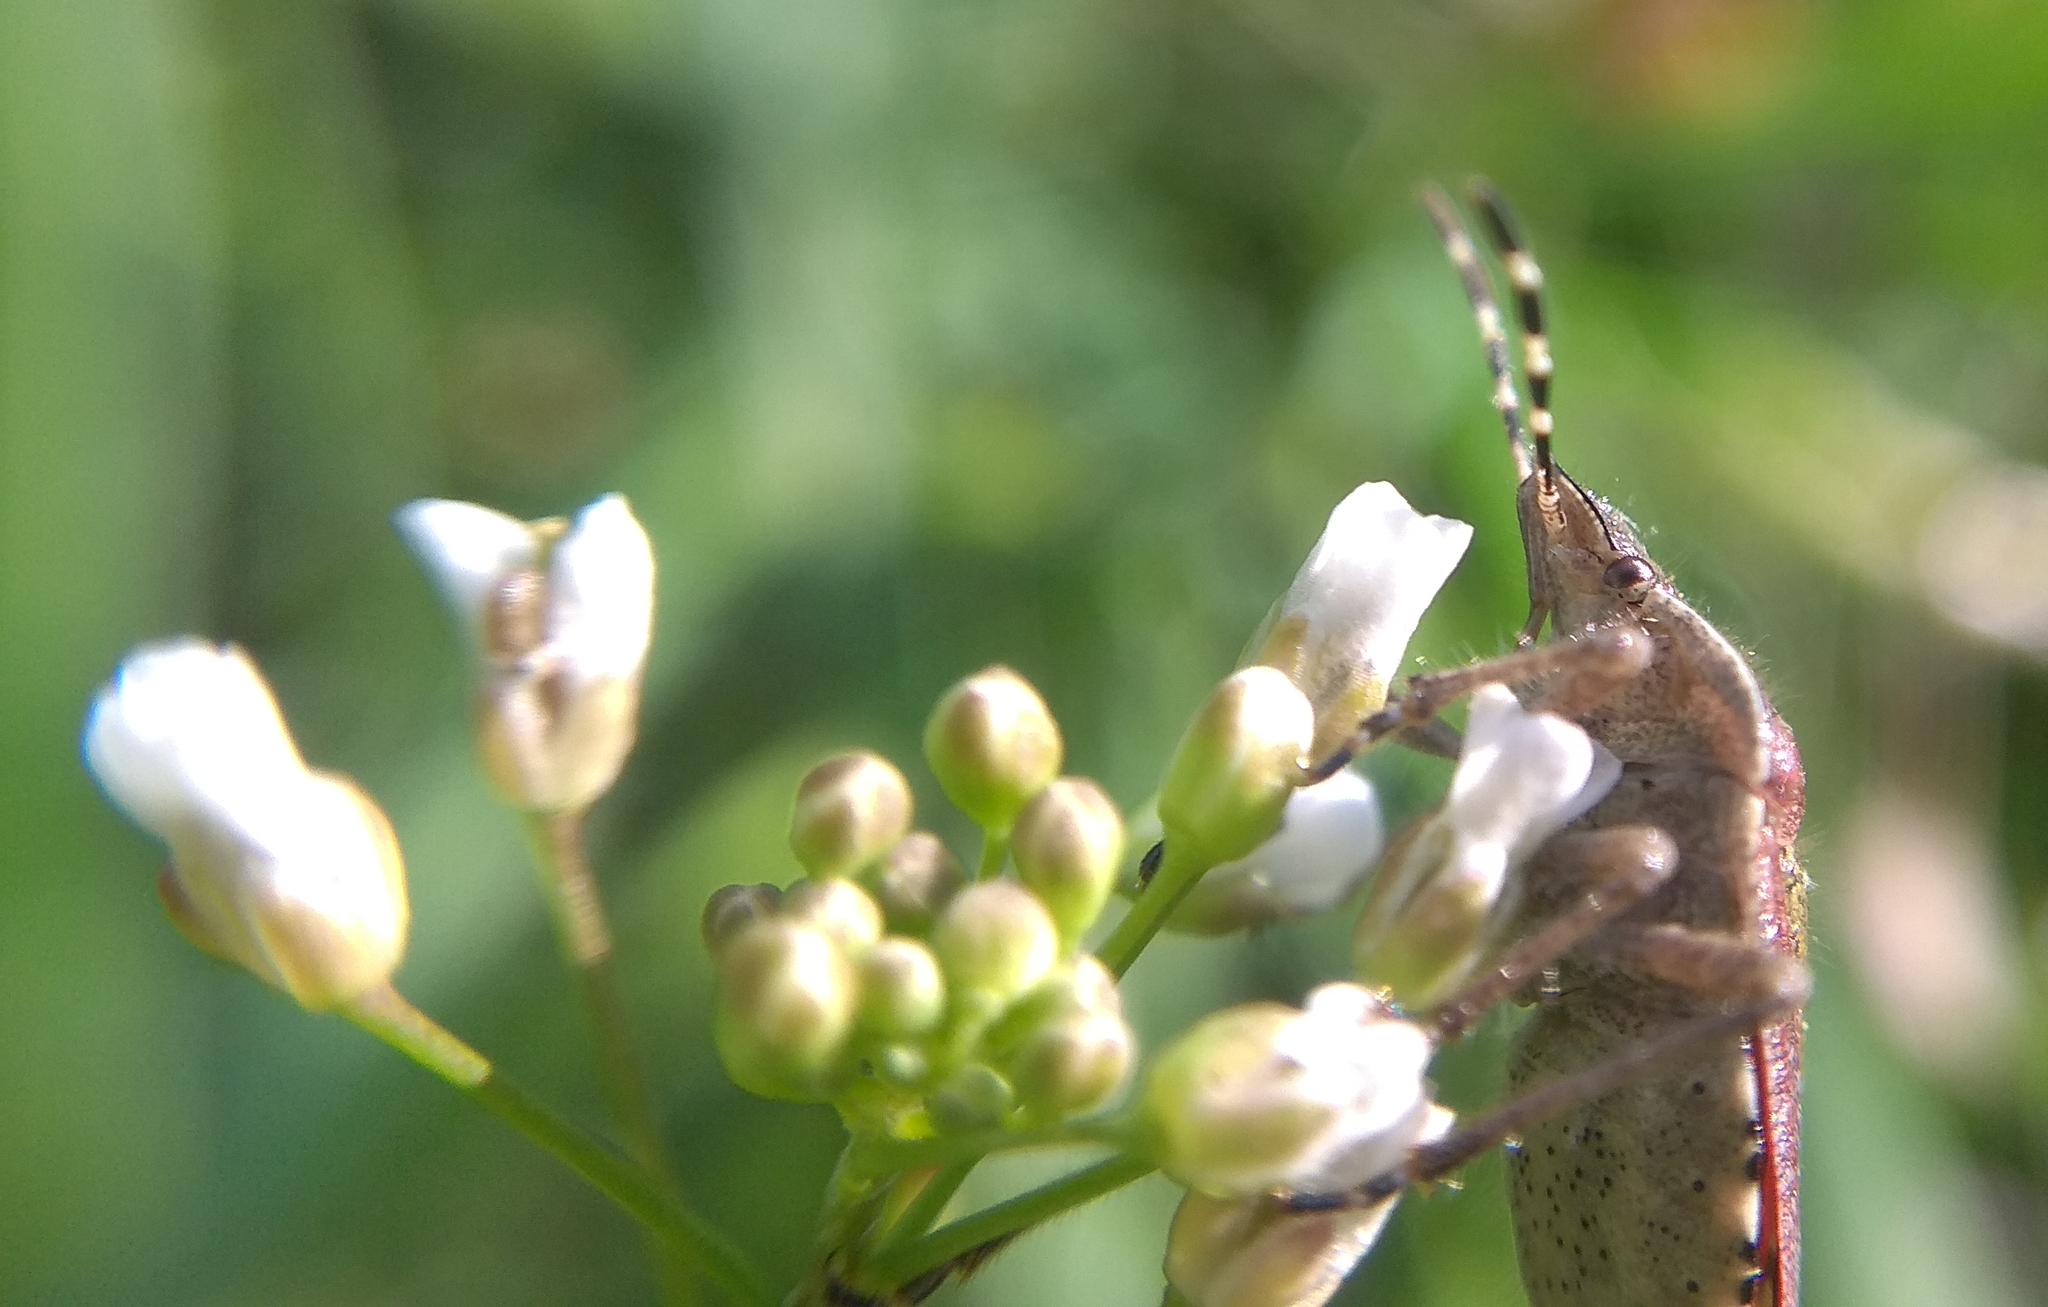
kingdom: Animalia
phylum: Arthropoda
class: Insecta
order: Hemiptera
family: Pentatomidae
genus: Dolycoris
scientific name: Dolycoris baccarum
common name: Sloe bug
